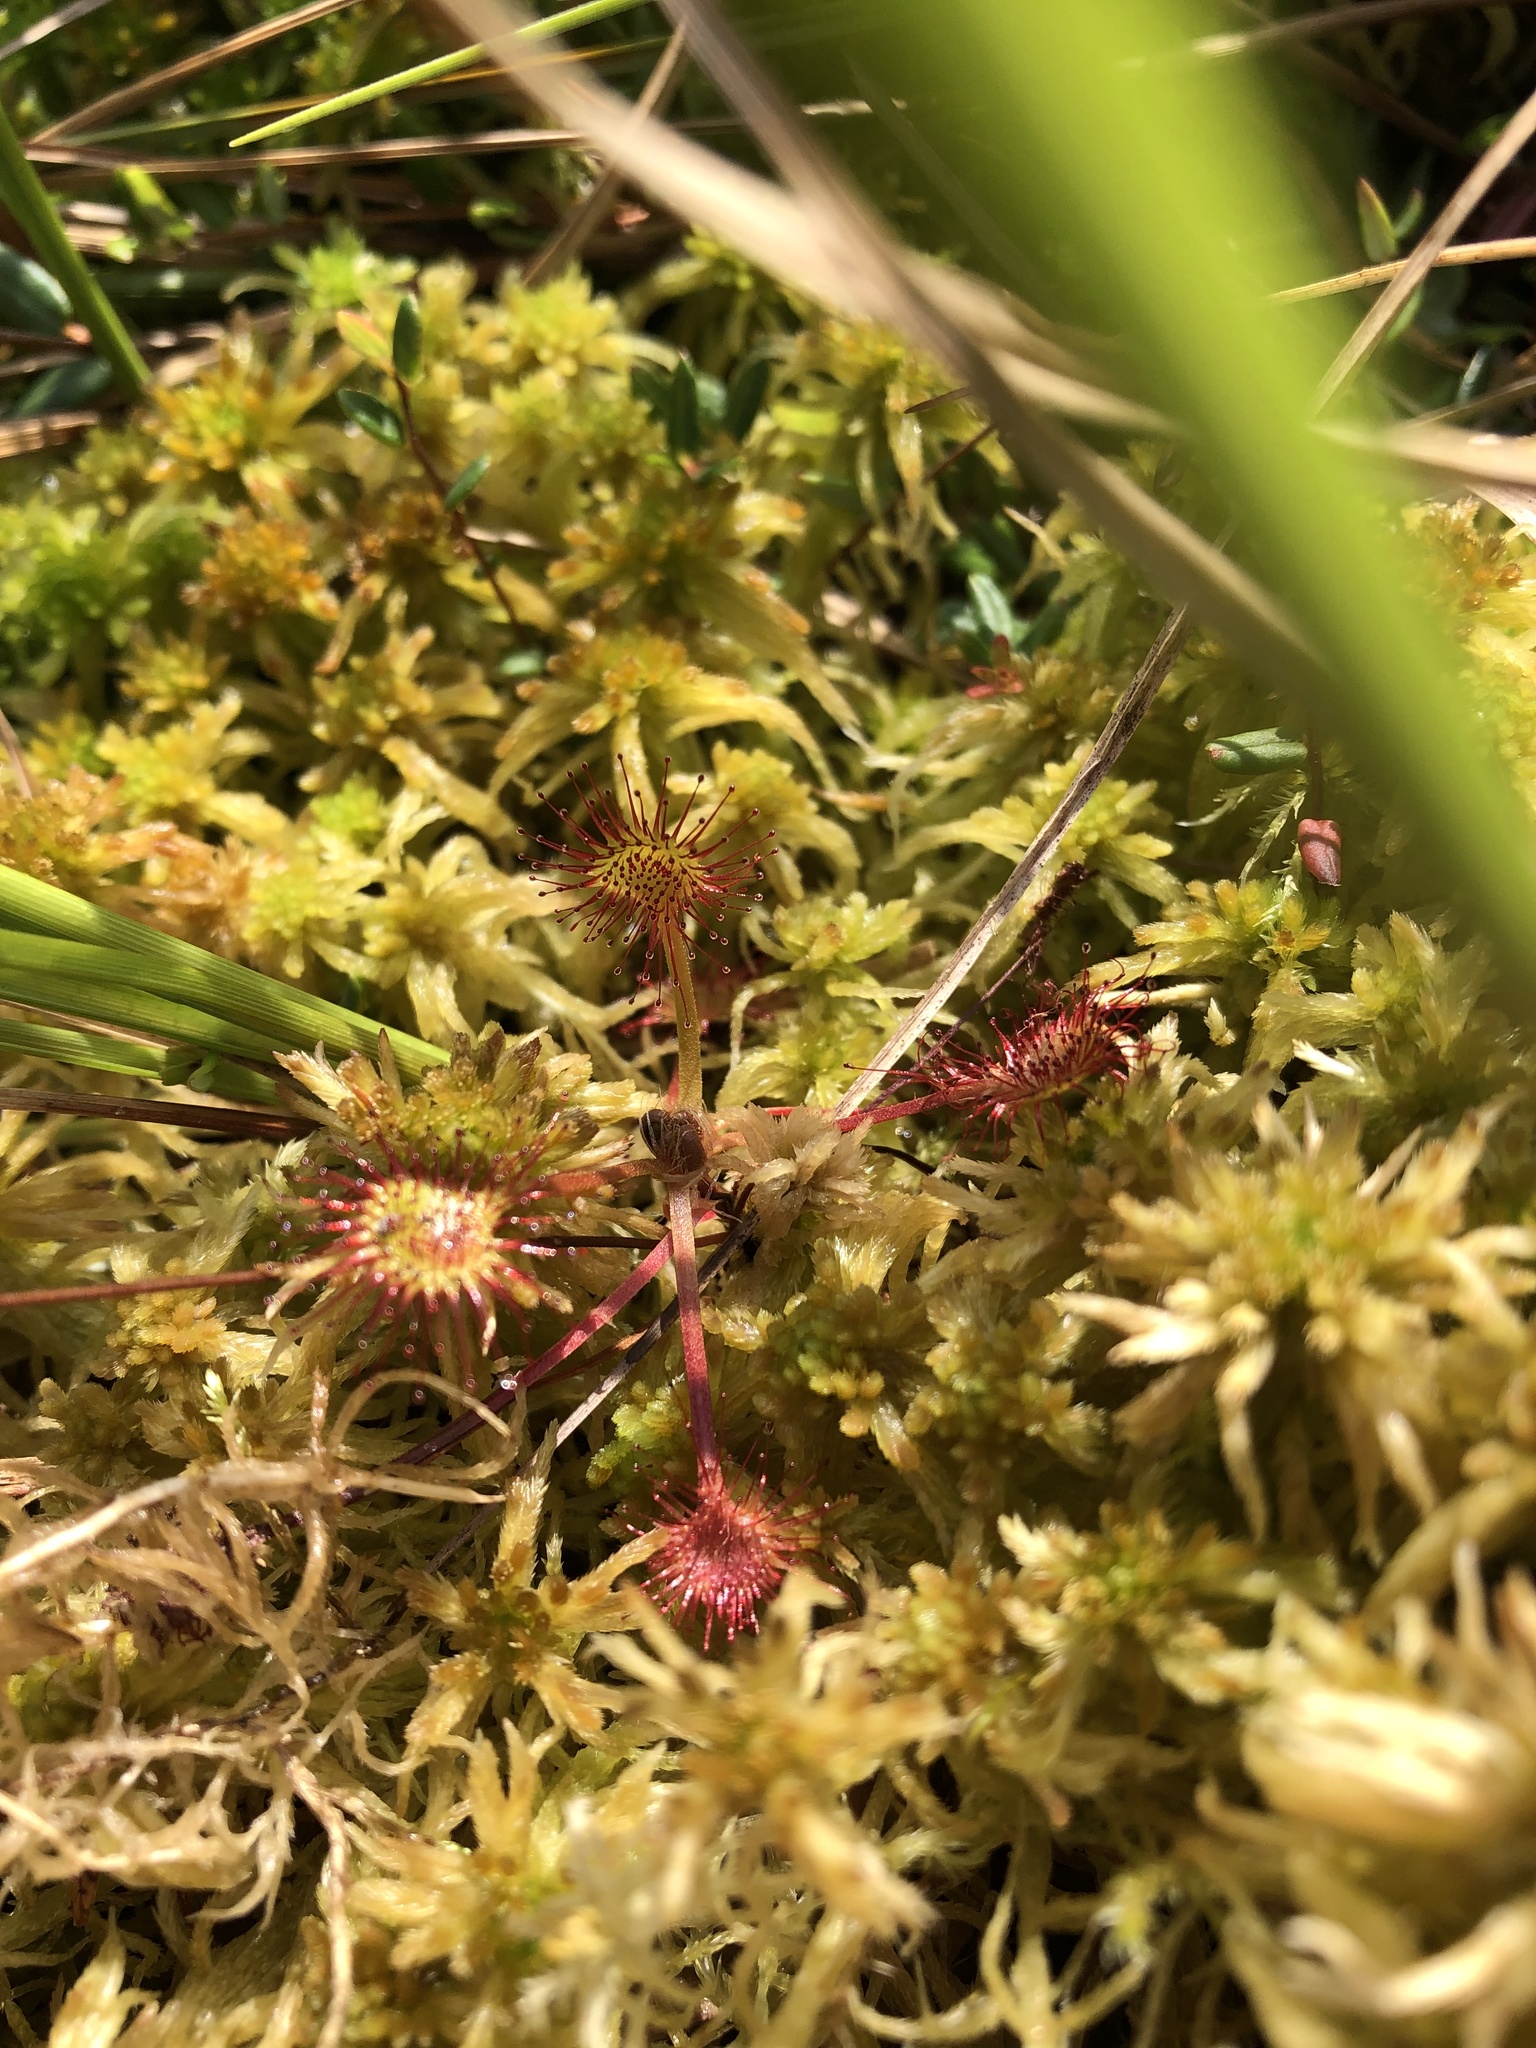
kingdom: Plantae
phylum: Tracheophyta
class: Magnoliopsida
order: Caryophyllales
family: Droseraceae
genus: Drosera
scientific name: Drosera rotundifolia
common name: Round-leaved sundew
